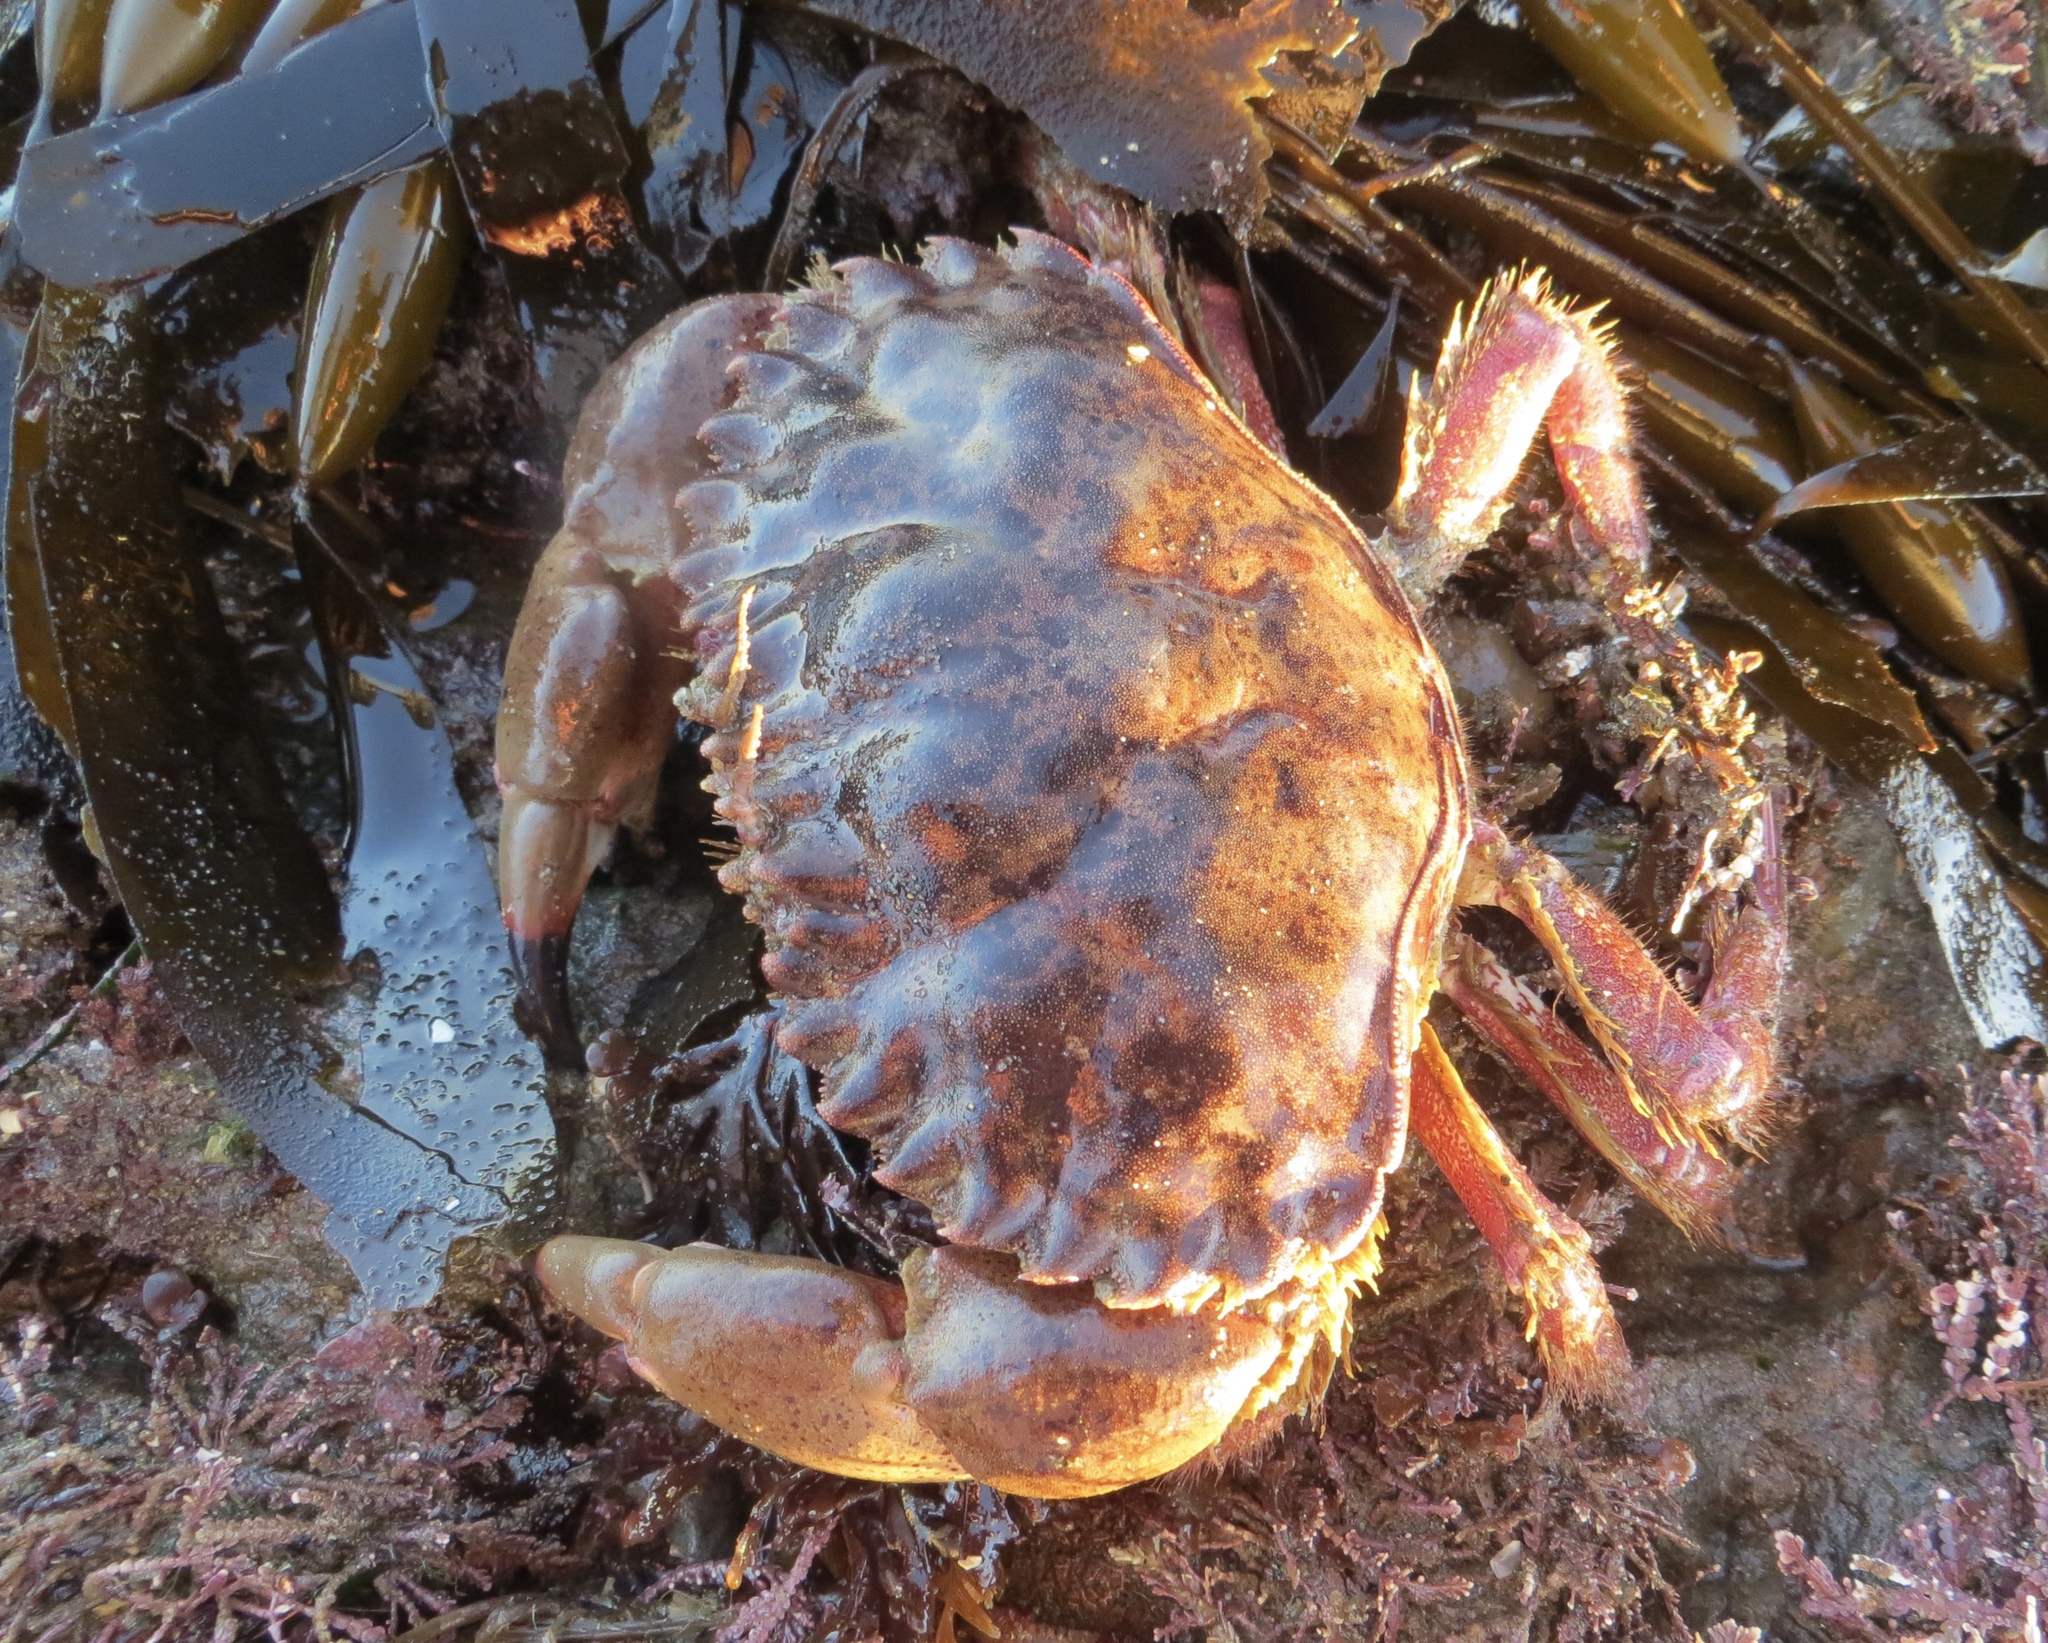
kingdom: Animalia
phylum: Arthropoda
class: Malacostraca
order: Decapoda
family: Cancridae
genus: Romaleon
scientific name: Romaleon antennarium
